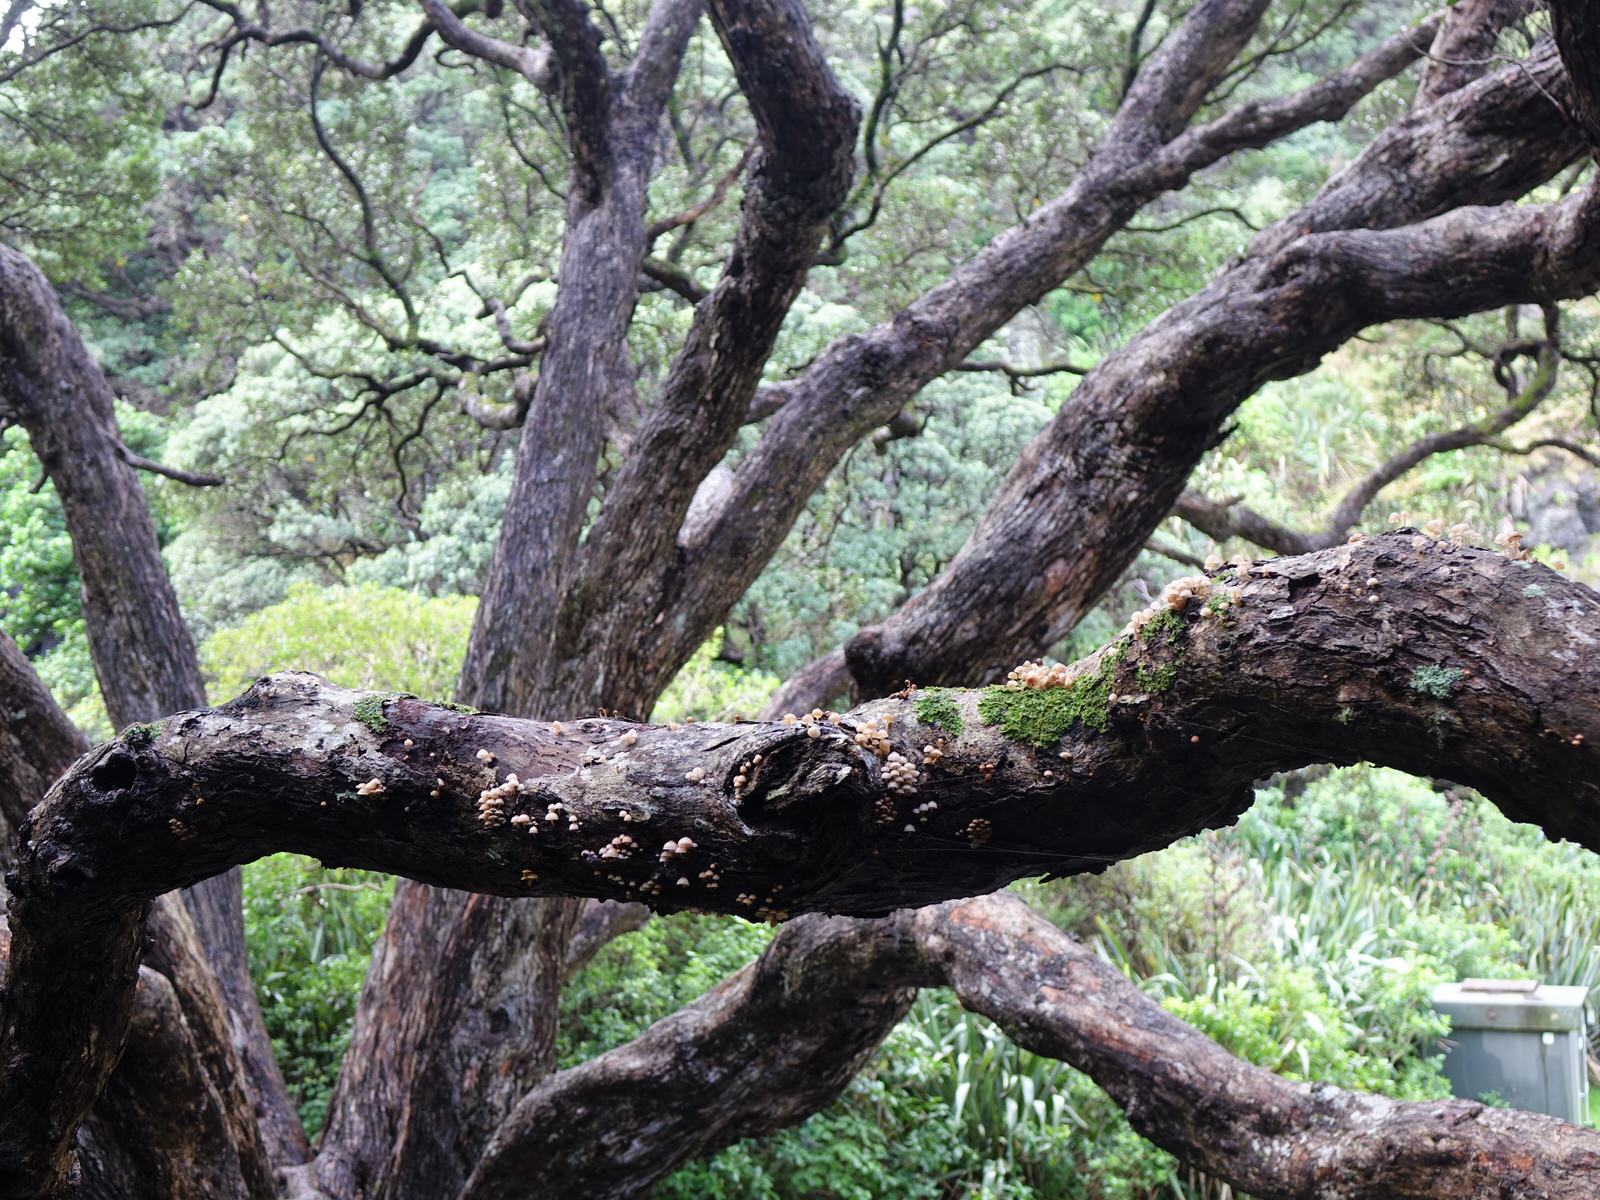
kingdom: Fungi
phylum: Basidiomycota
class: Agaricomycetes
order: Agaricales
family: Mycenaceae
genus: Mycena
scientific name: Mycena parsonsii
